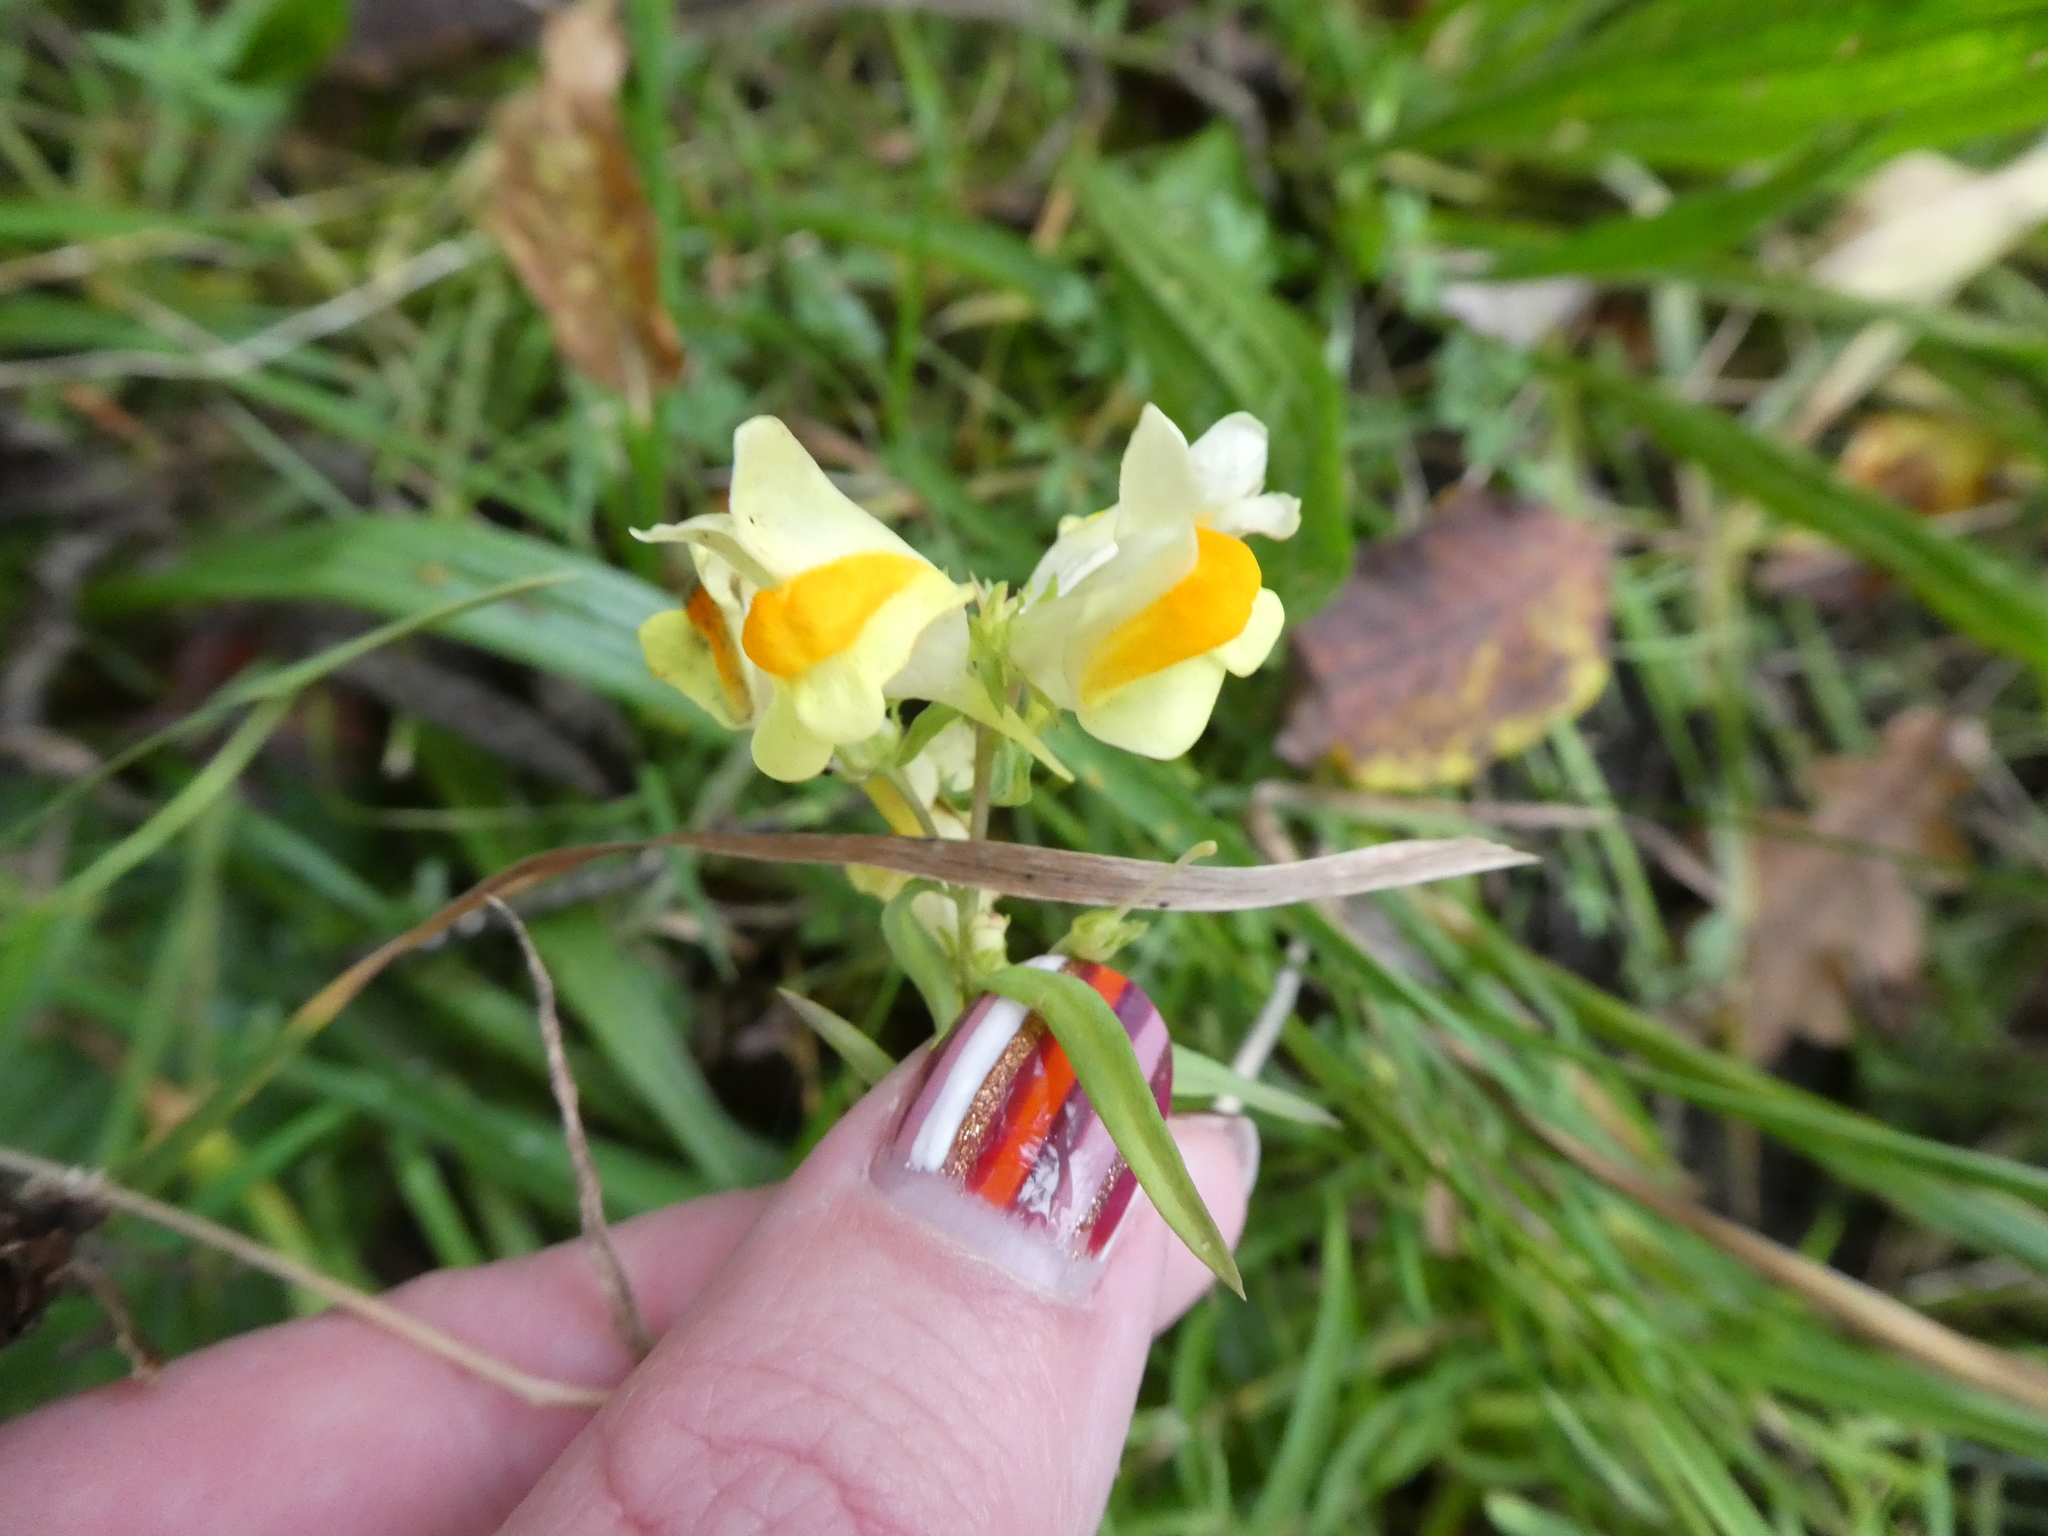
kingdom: Plantae
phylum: Tracheophyta
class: Magnoliopsida
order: Lamiales
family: Plantaginaceae
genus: Linaria
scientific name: Linaria vulgaris
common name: Butter and eggs
